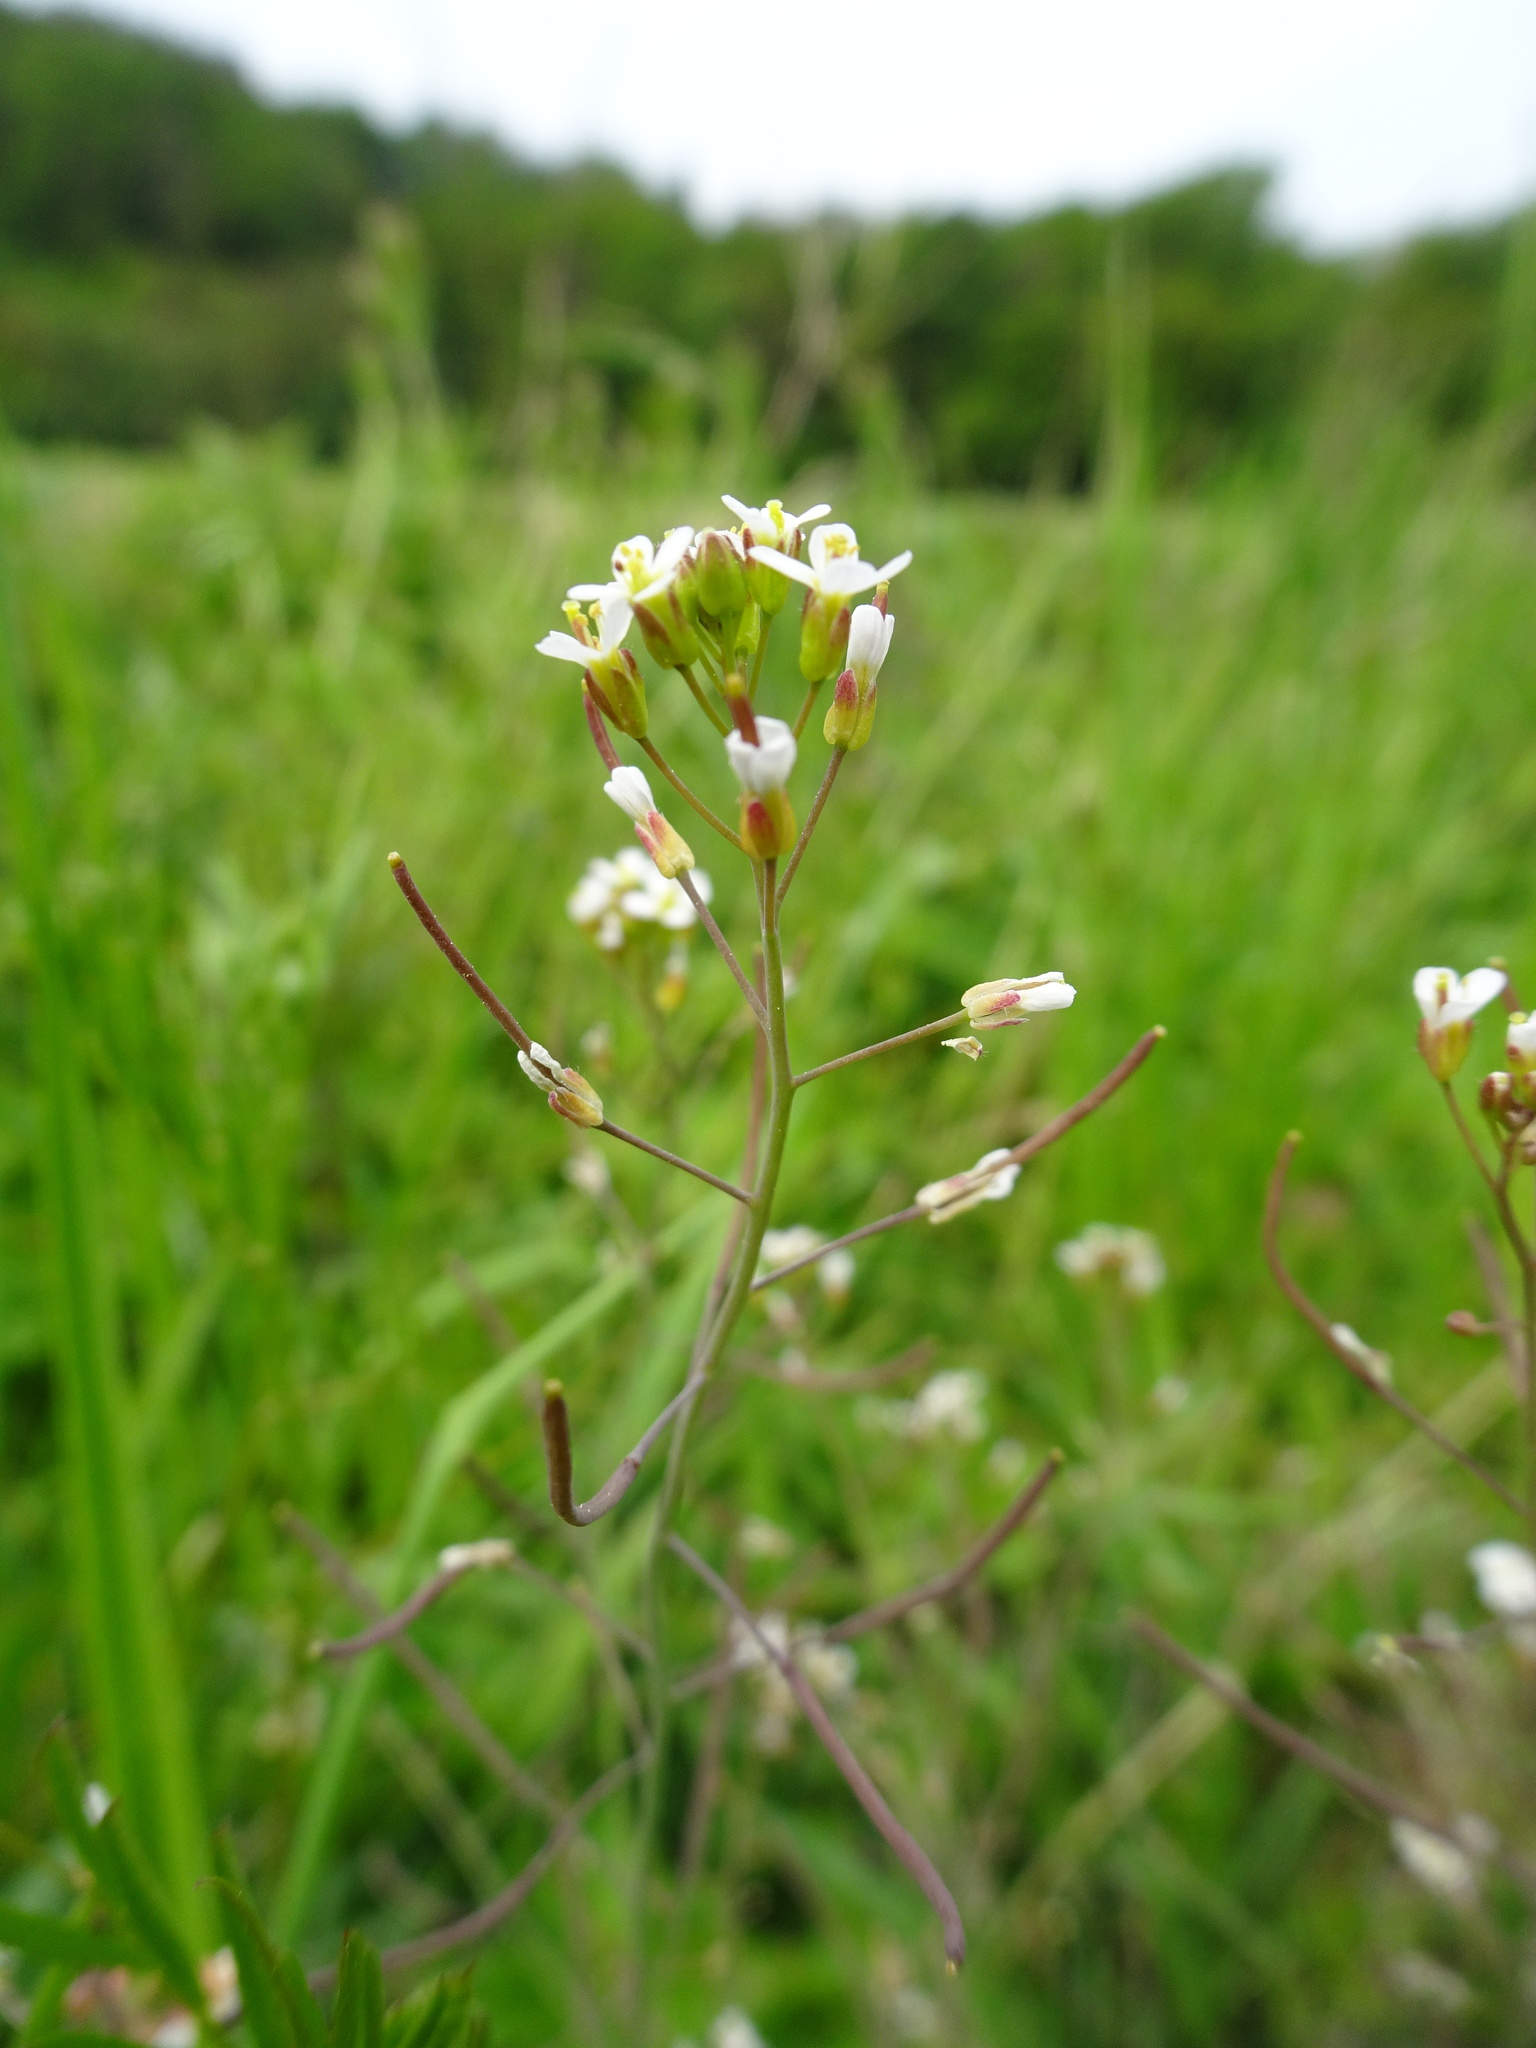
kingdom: Plantae
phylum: Tracheophyta
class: Magnoliopsida
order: Brassicales
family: Brassicaceae
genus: Arabidopsis
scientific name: Arabidopsis thaliana
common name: Thale cress
